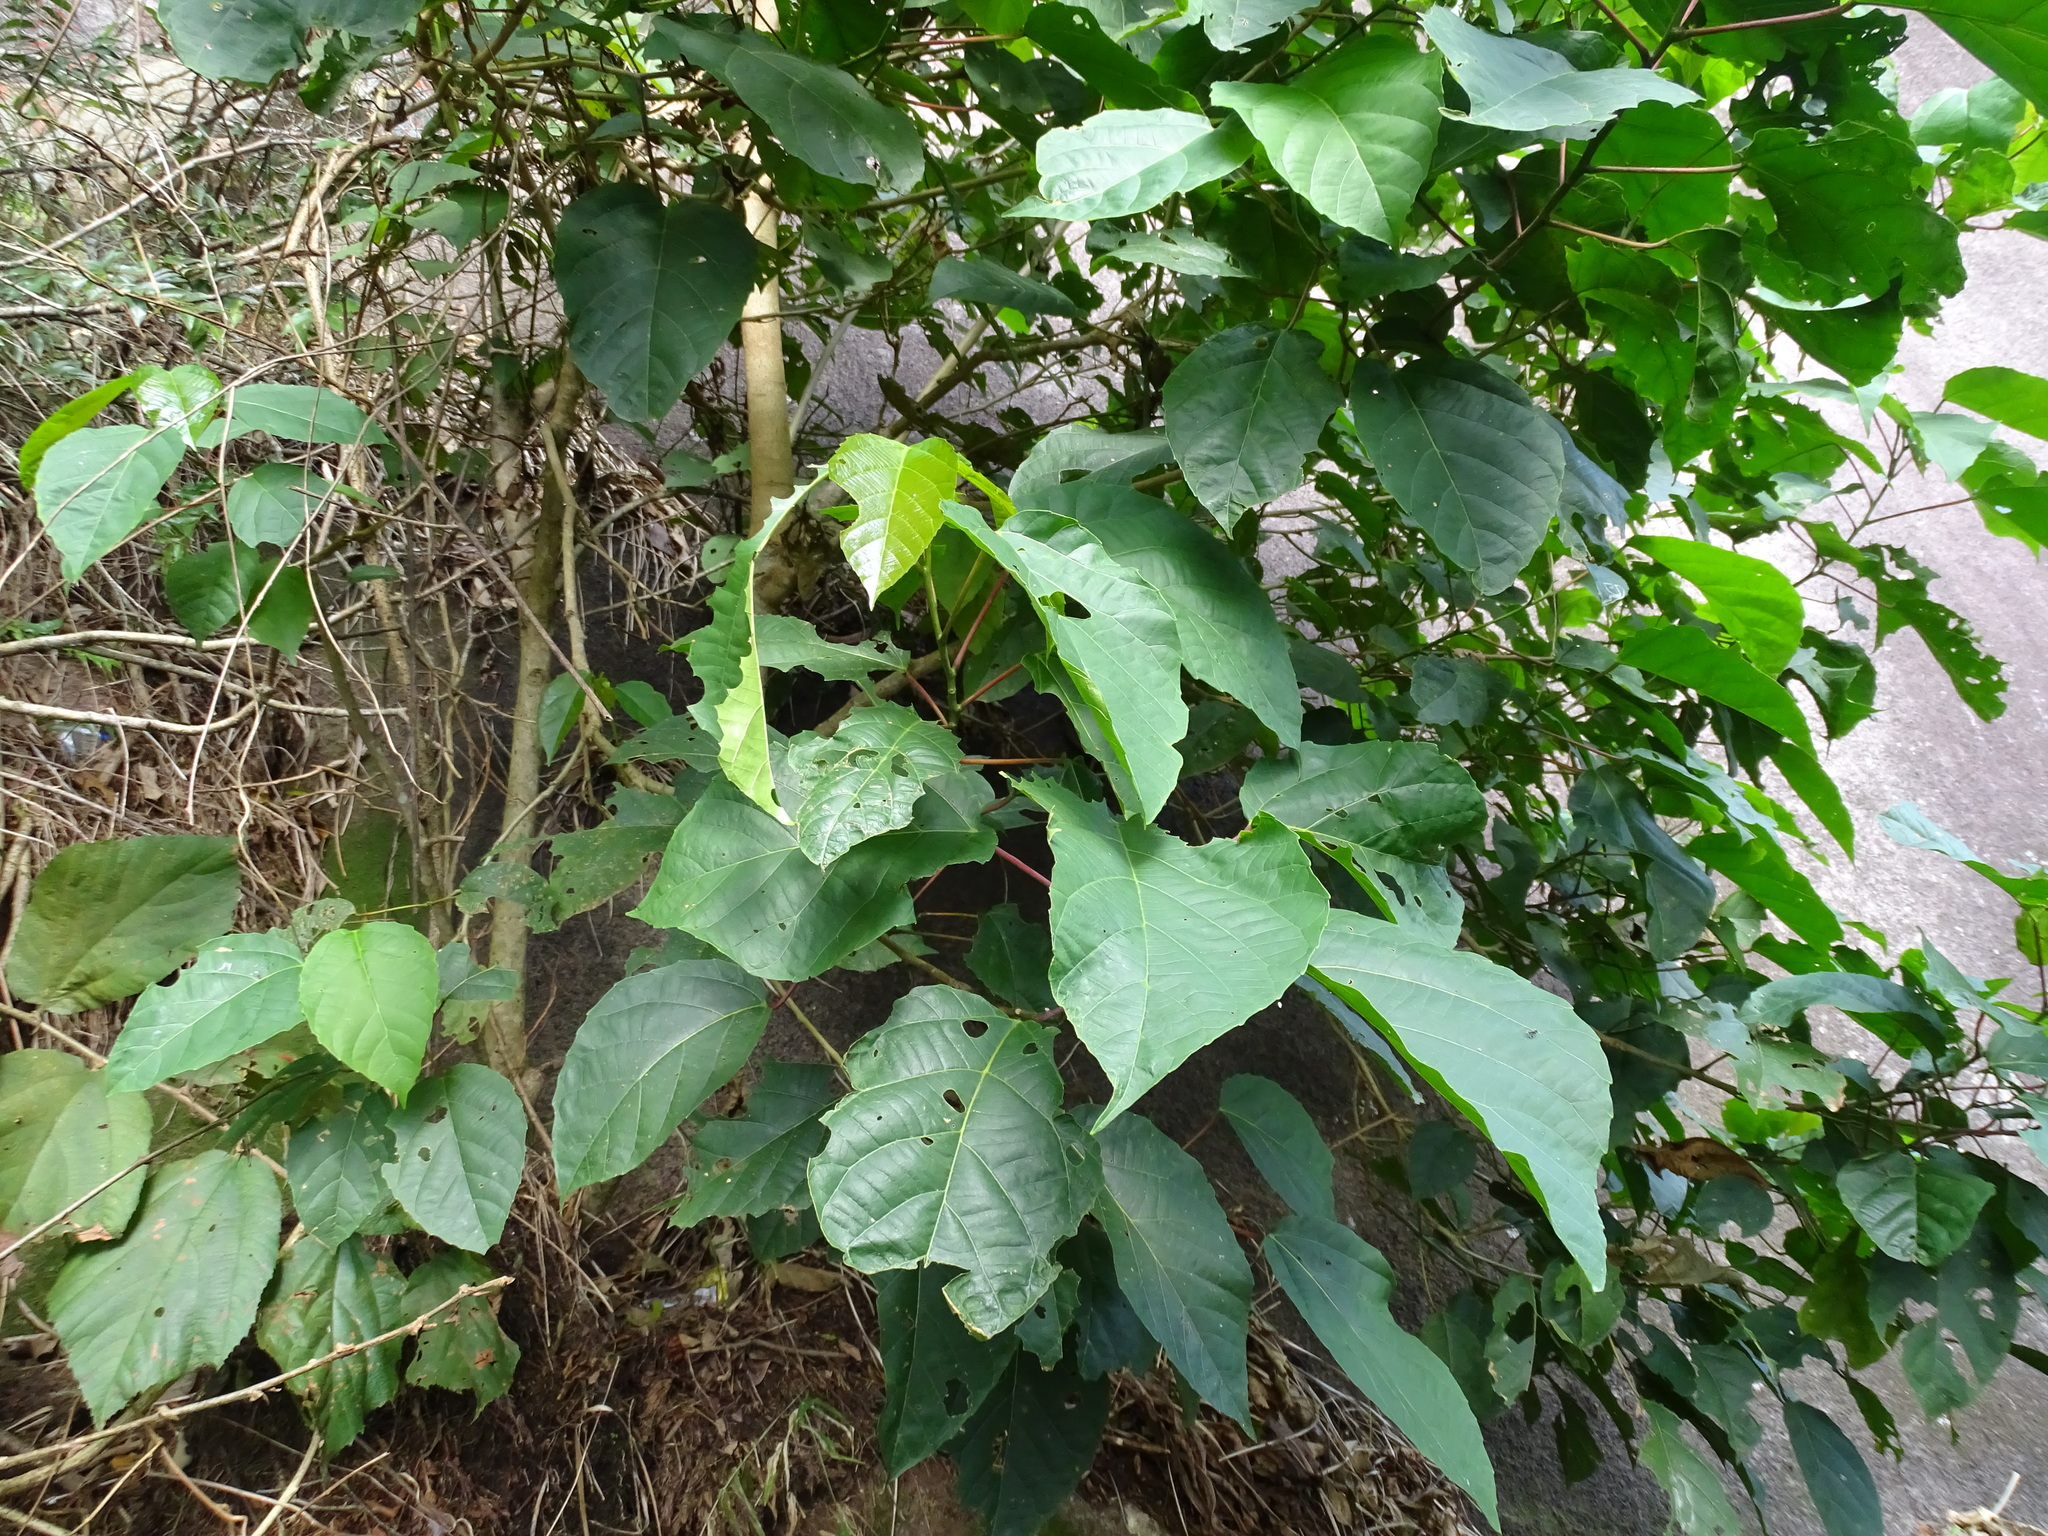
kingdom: Plantae
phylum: Tracheophyta
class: Magnoliopsida
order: Malpighiales
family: Euphorbiaceae
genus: Alchornea
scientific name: Alchornea latifolia
